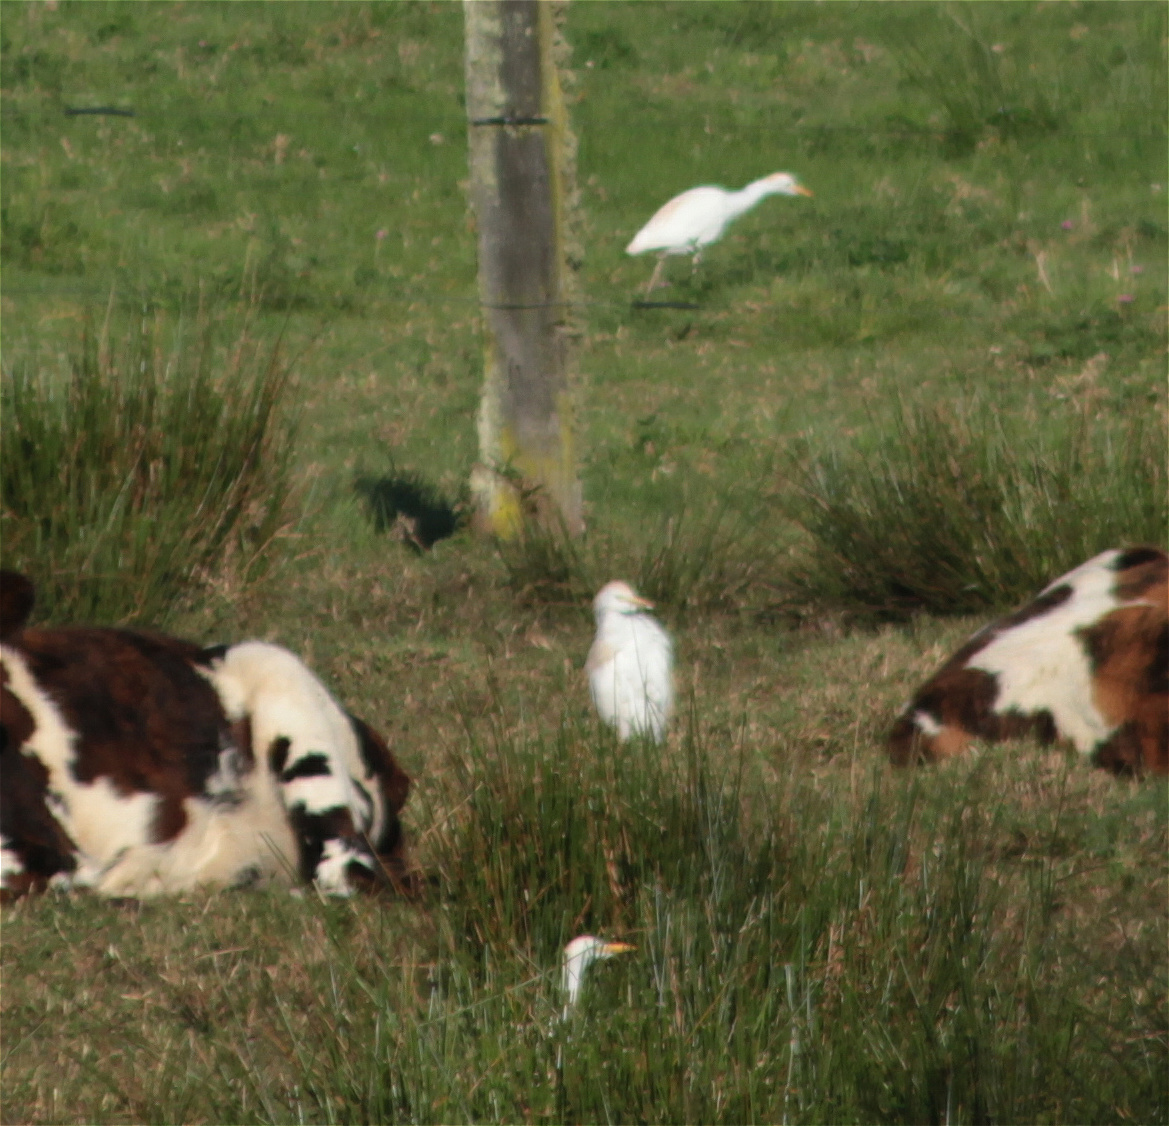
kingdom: Animalia
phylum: Chordata
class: Aves
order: Pelecaniformes
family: Ardeidae
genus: Bubulcus
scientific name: Bubulcus ibis
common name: Cattle egret
